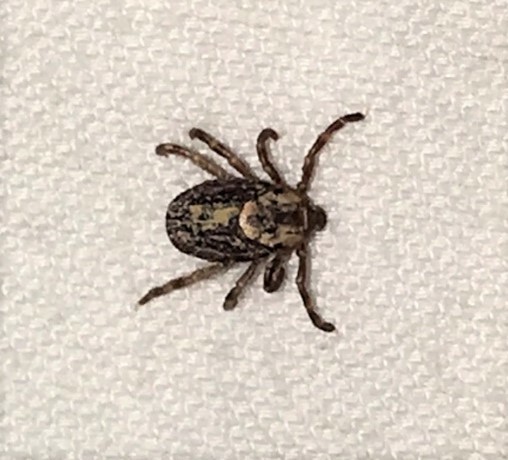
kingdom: Animalia
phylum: Arthropoda
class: Arachnida
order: Ixodida
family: Ixodidae
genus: Dermacentor
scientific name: Dermacentor variabilis
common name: American dog tick
